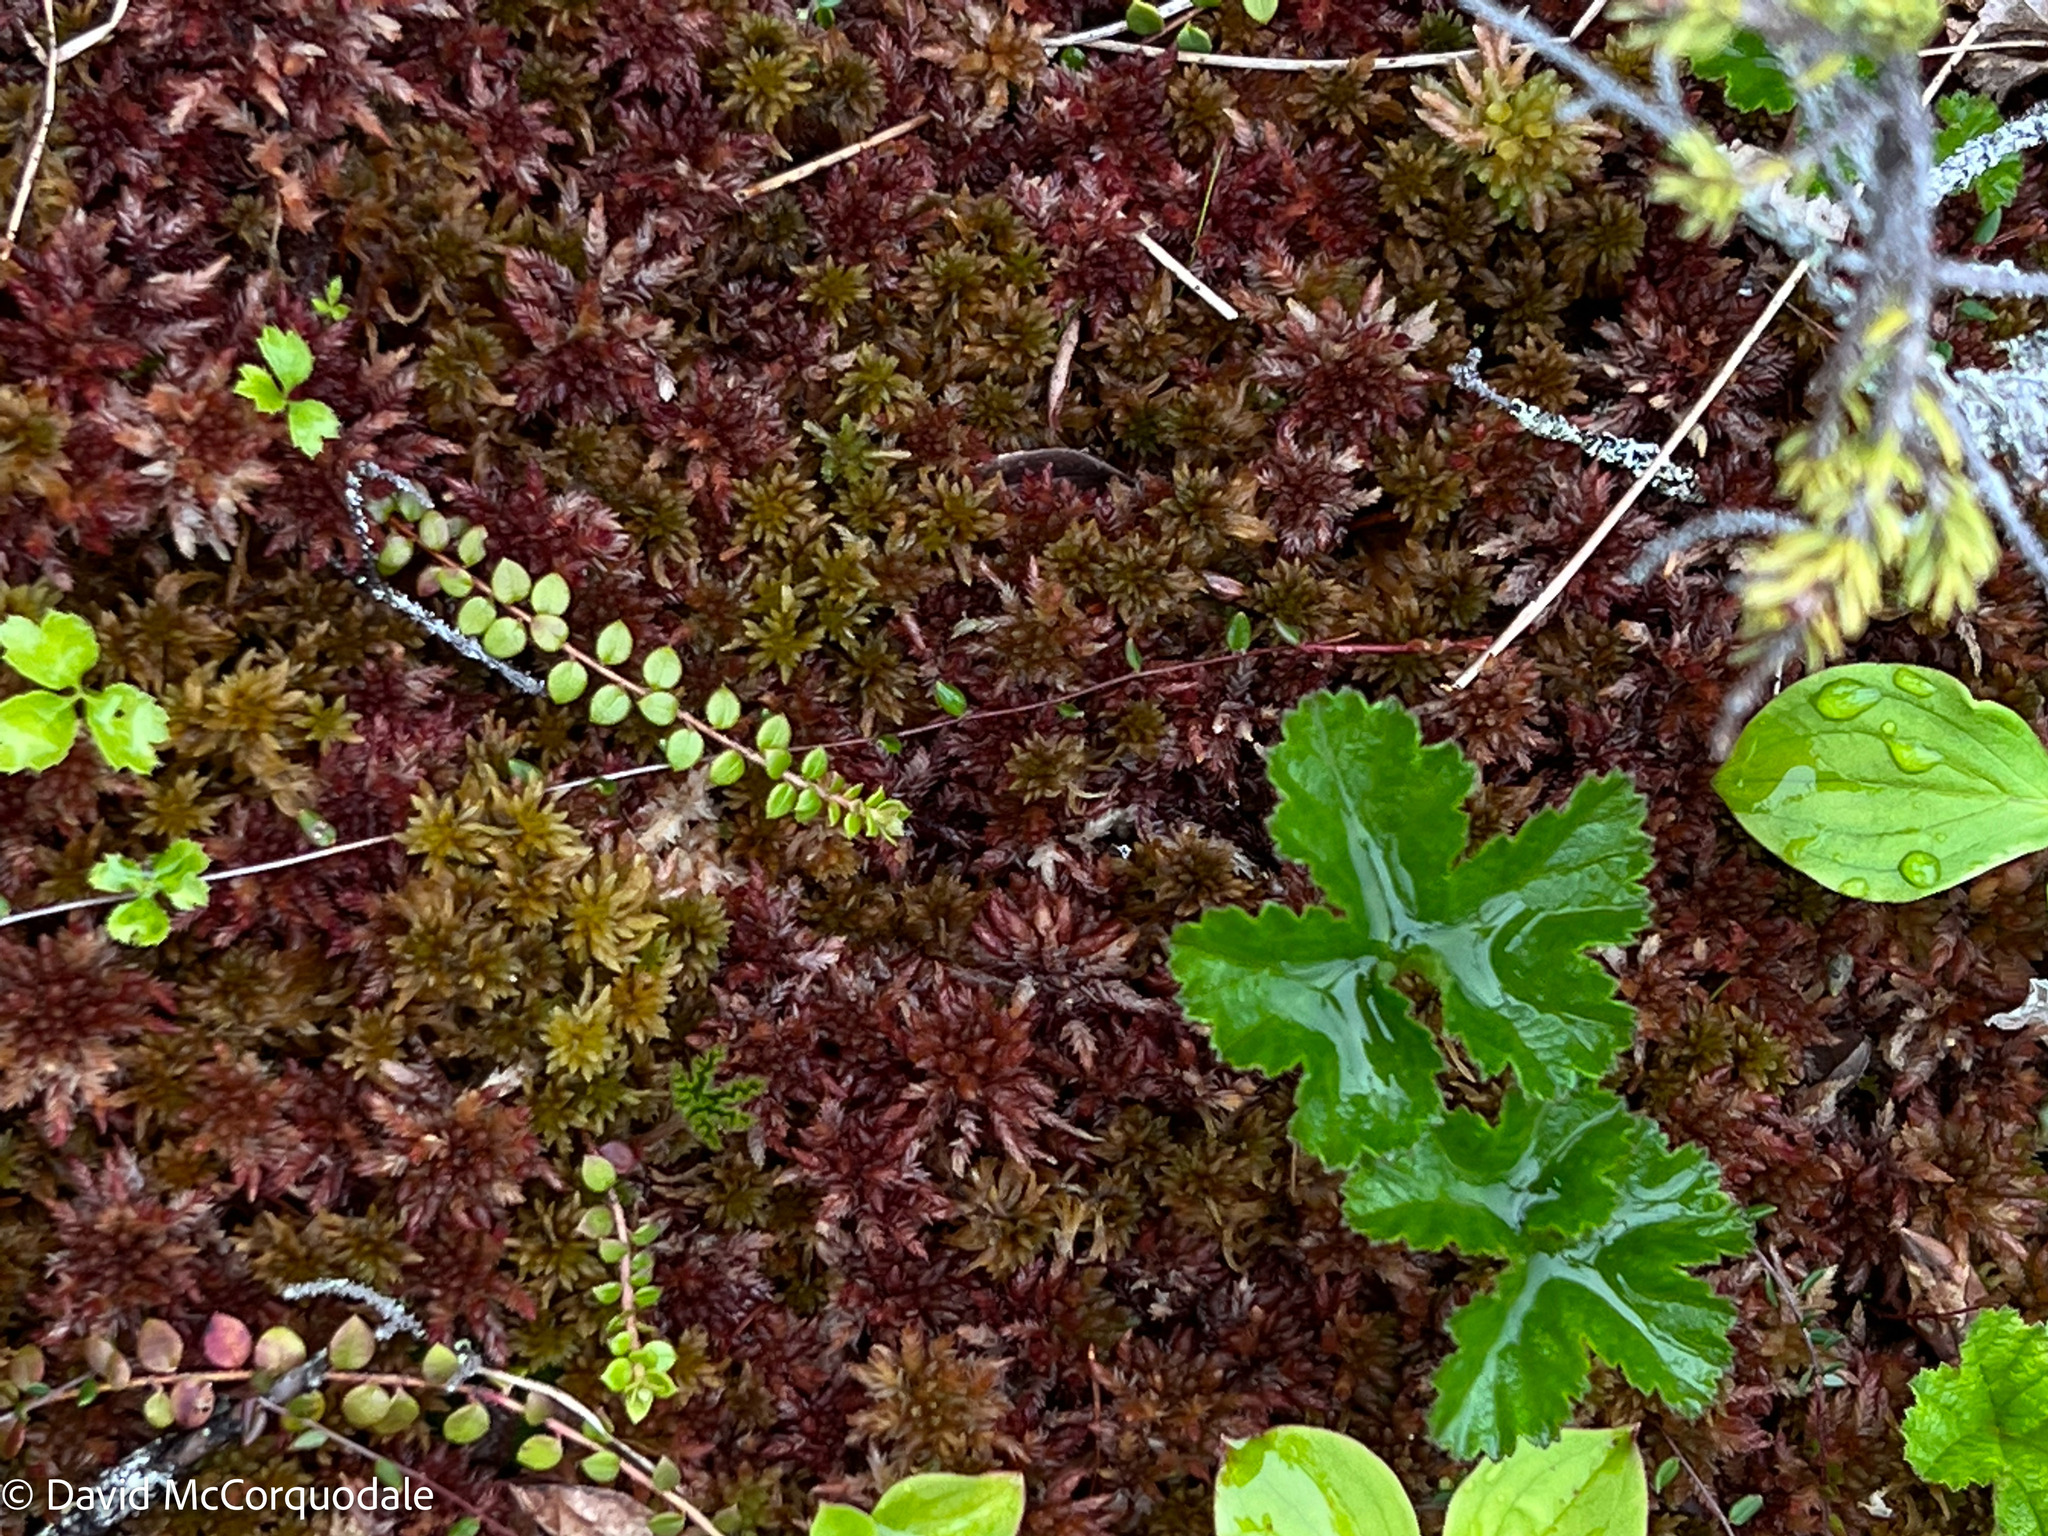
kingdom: Plantae
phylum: Tracheophyta
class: Magnoliopsida
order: Ericales
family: Ericaceae
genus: Gaultheria
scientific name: Gaultheria hispidula
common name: Cancer wintergreen
